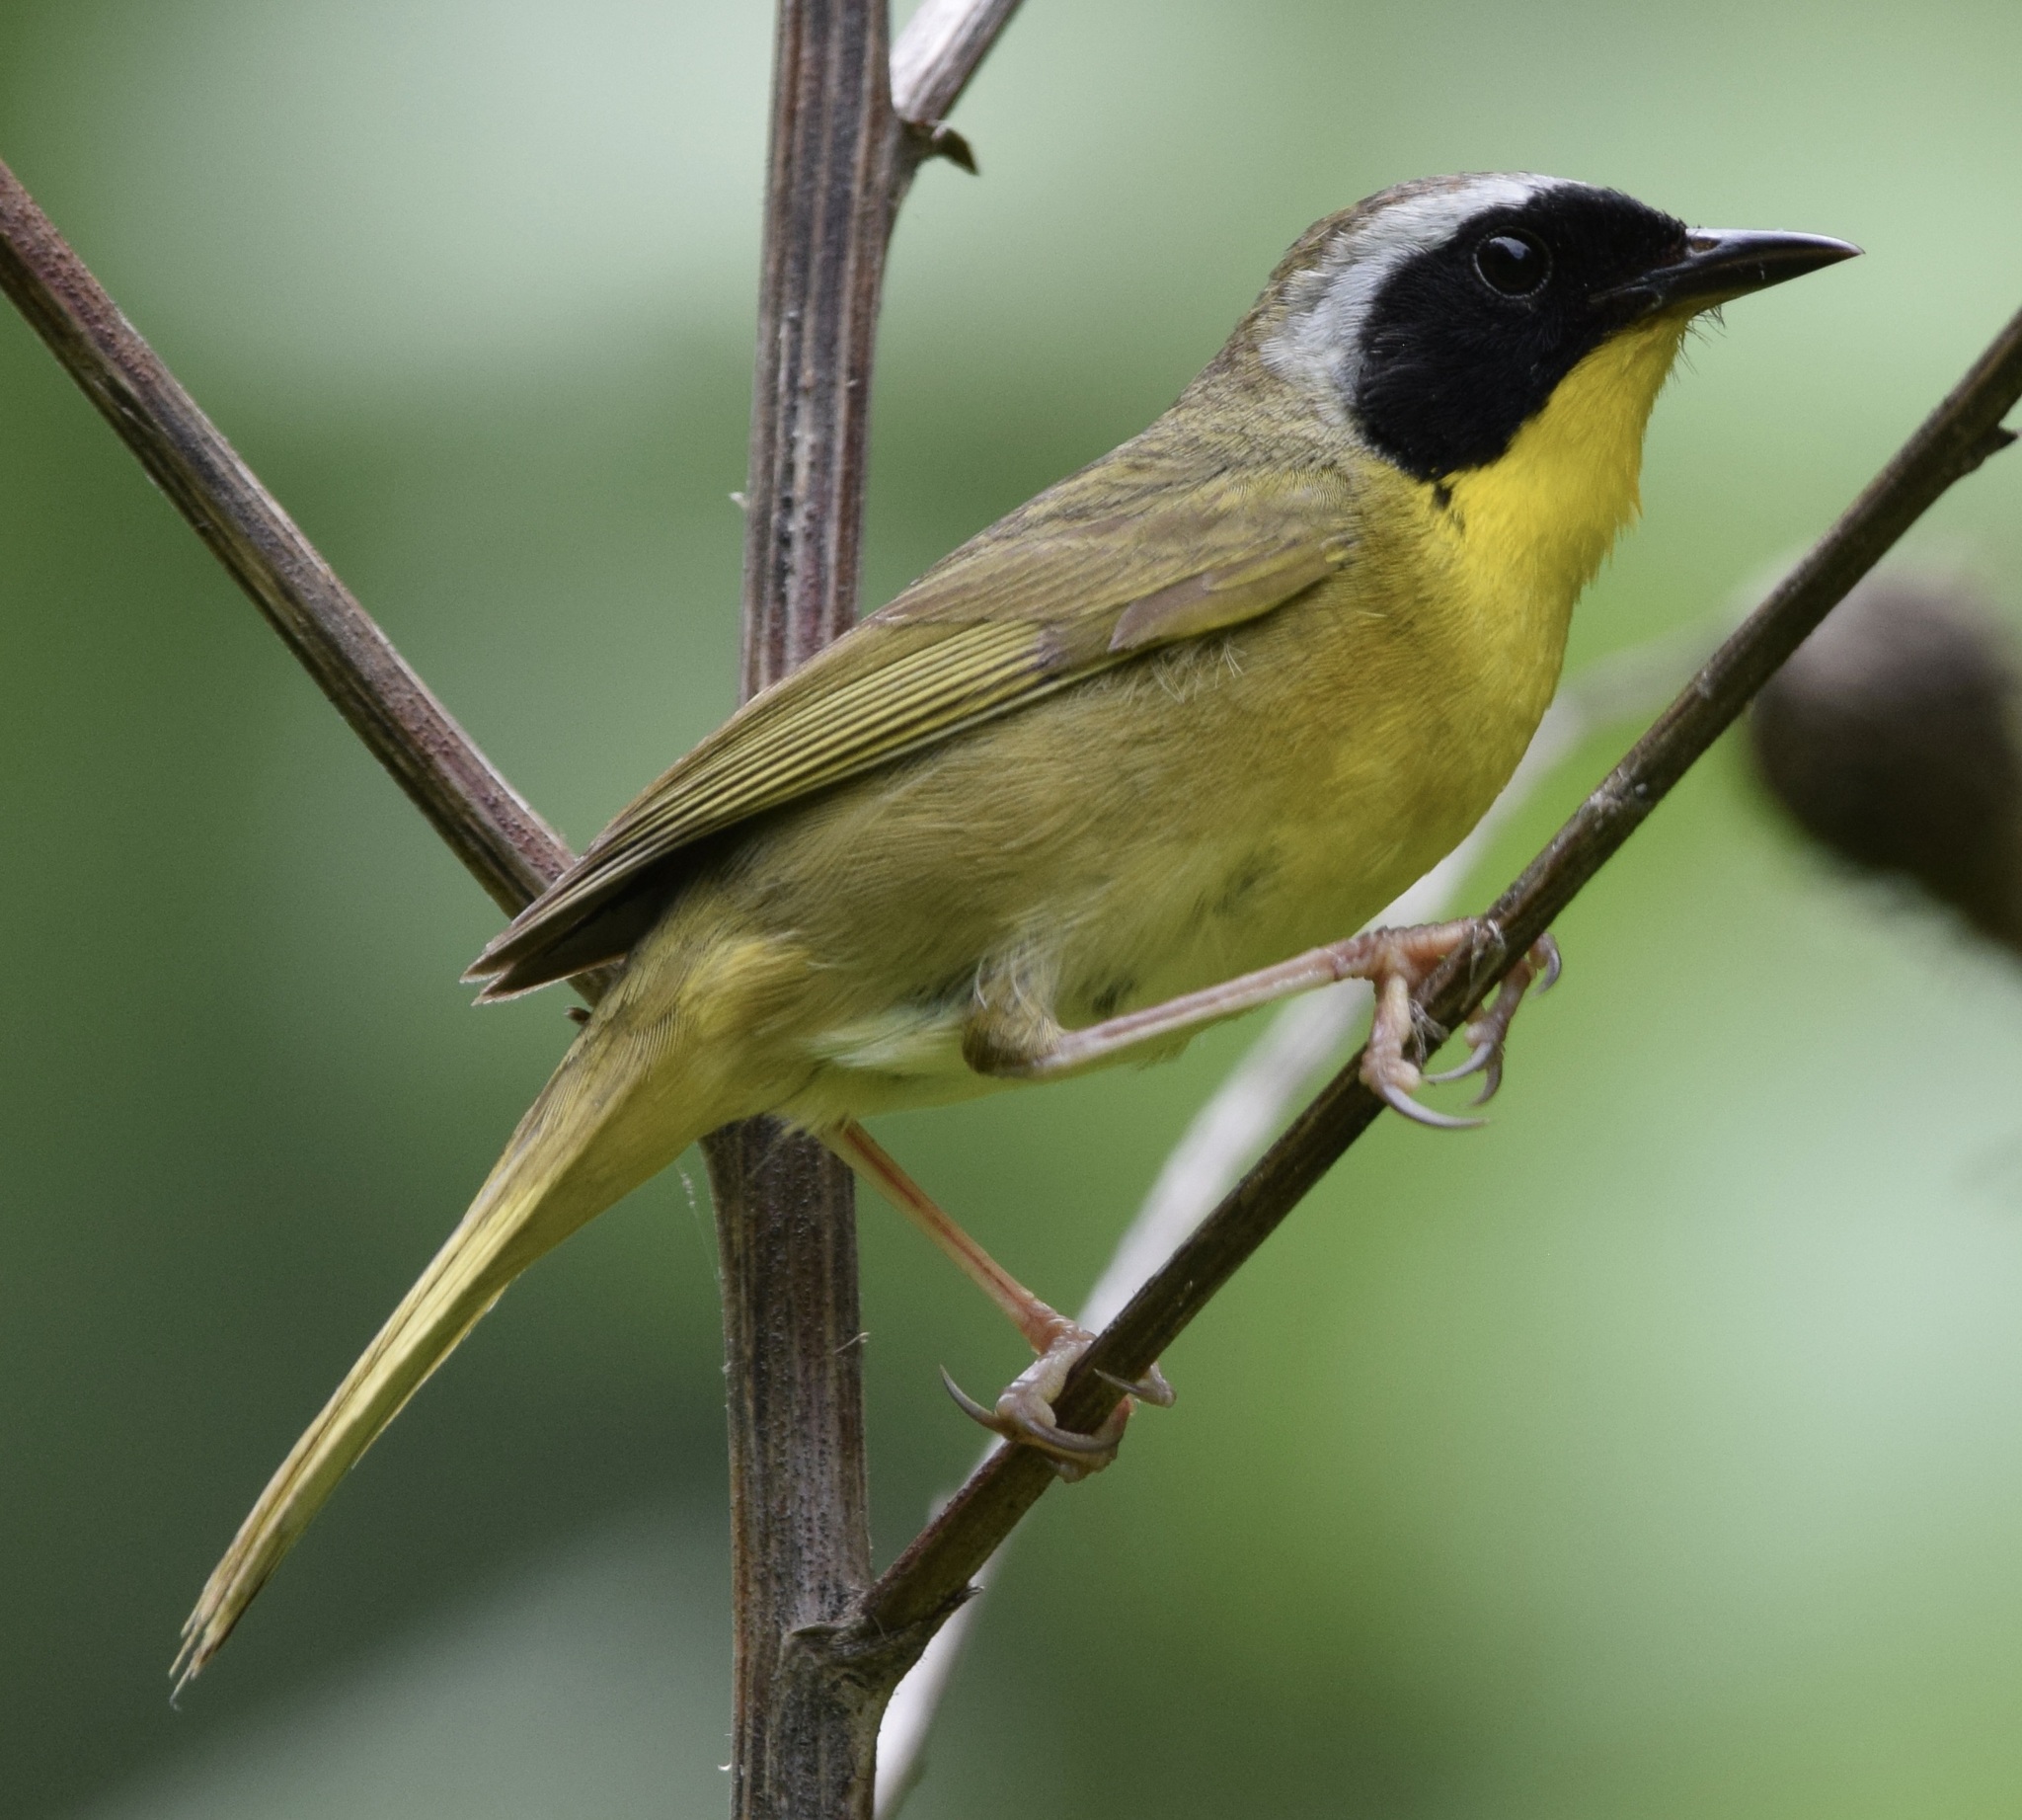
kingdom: Animalia
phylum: Chordata
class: Aves
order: Passeriformes
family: Parulidae
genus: Geothlypis
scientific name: Geothlypis trichas
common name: Common yellowthroat
